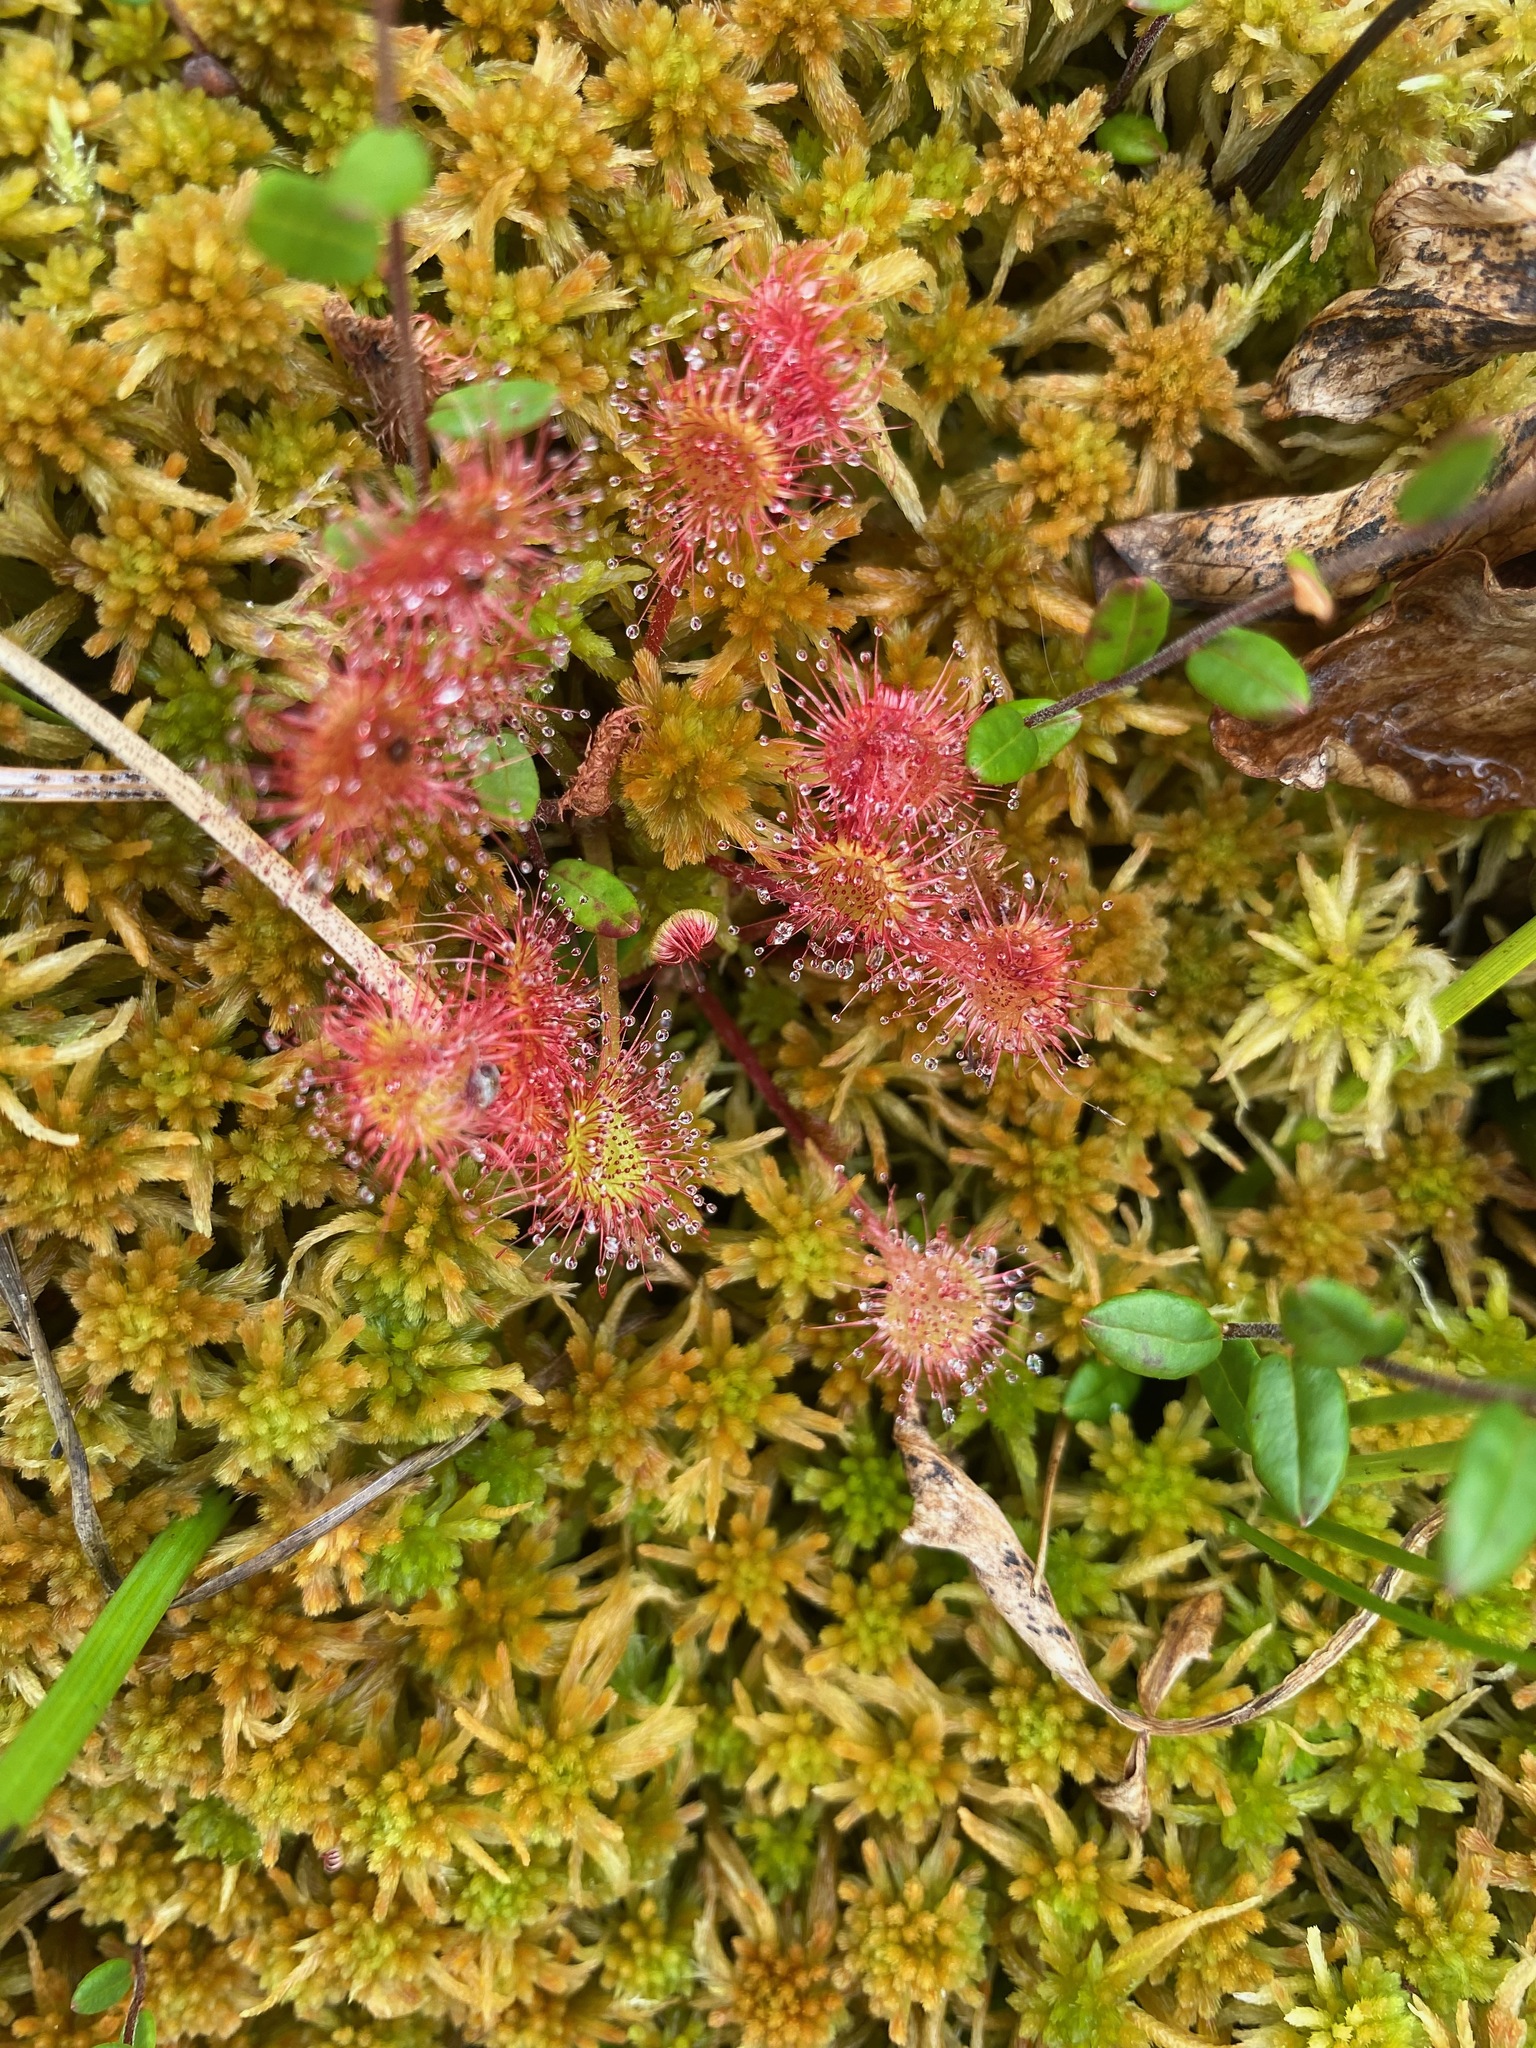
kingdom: Plantae
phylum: Tracheophyta
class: Magnoliopsida
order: Caryophyllales
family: Droseraceae
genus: Drosera
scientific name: Drosera rotundifolia
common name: Round-leaved sundew
